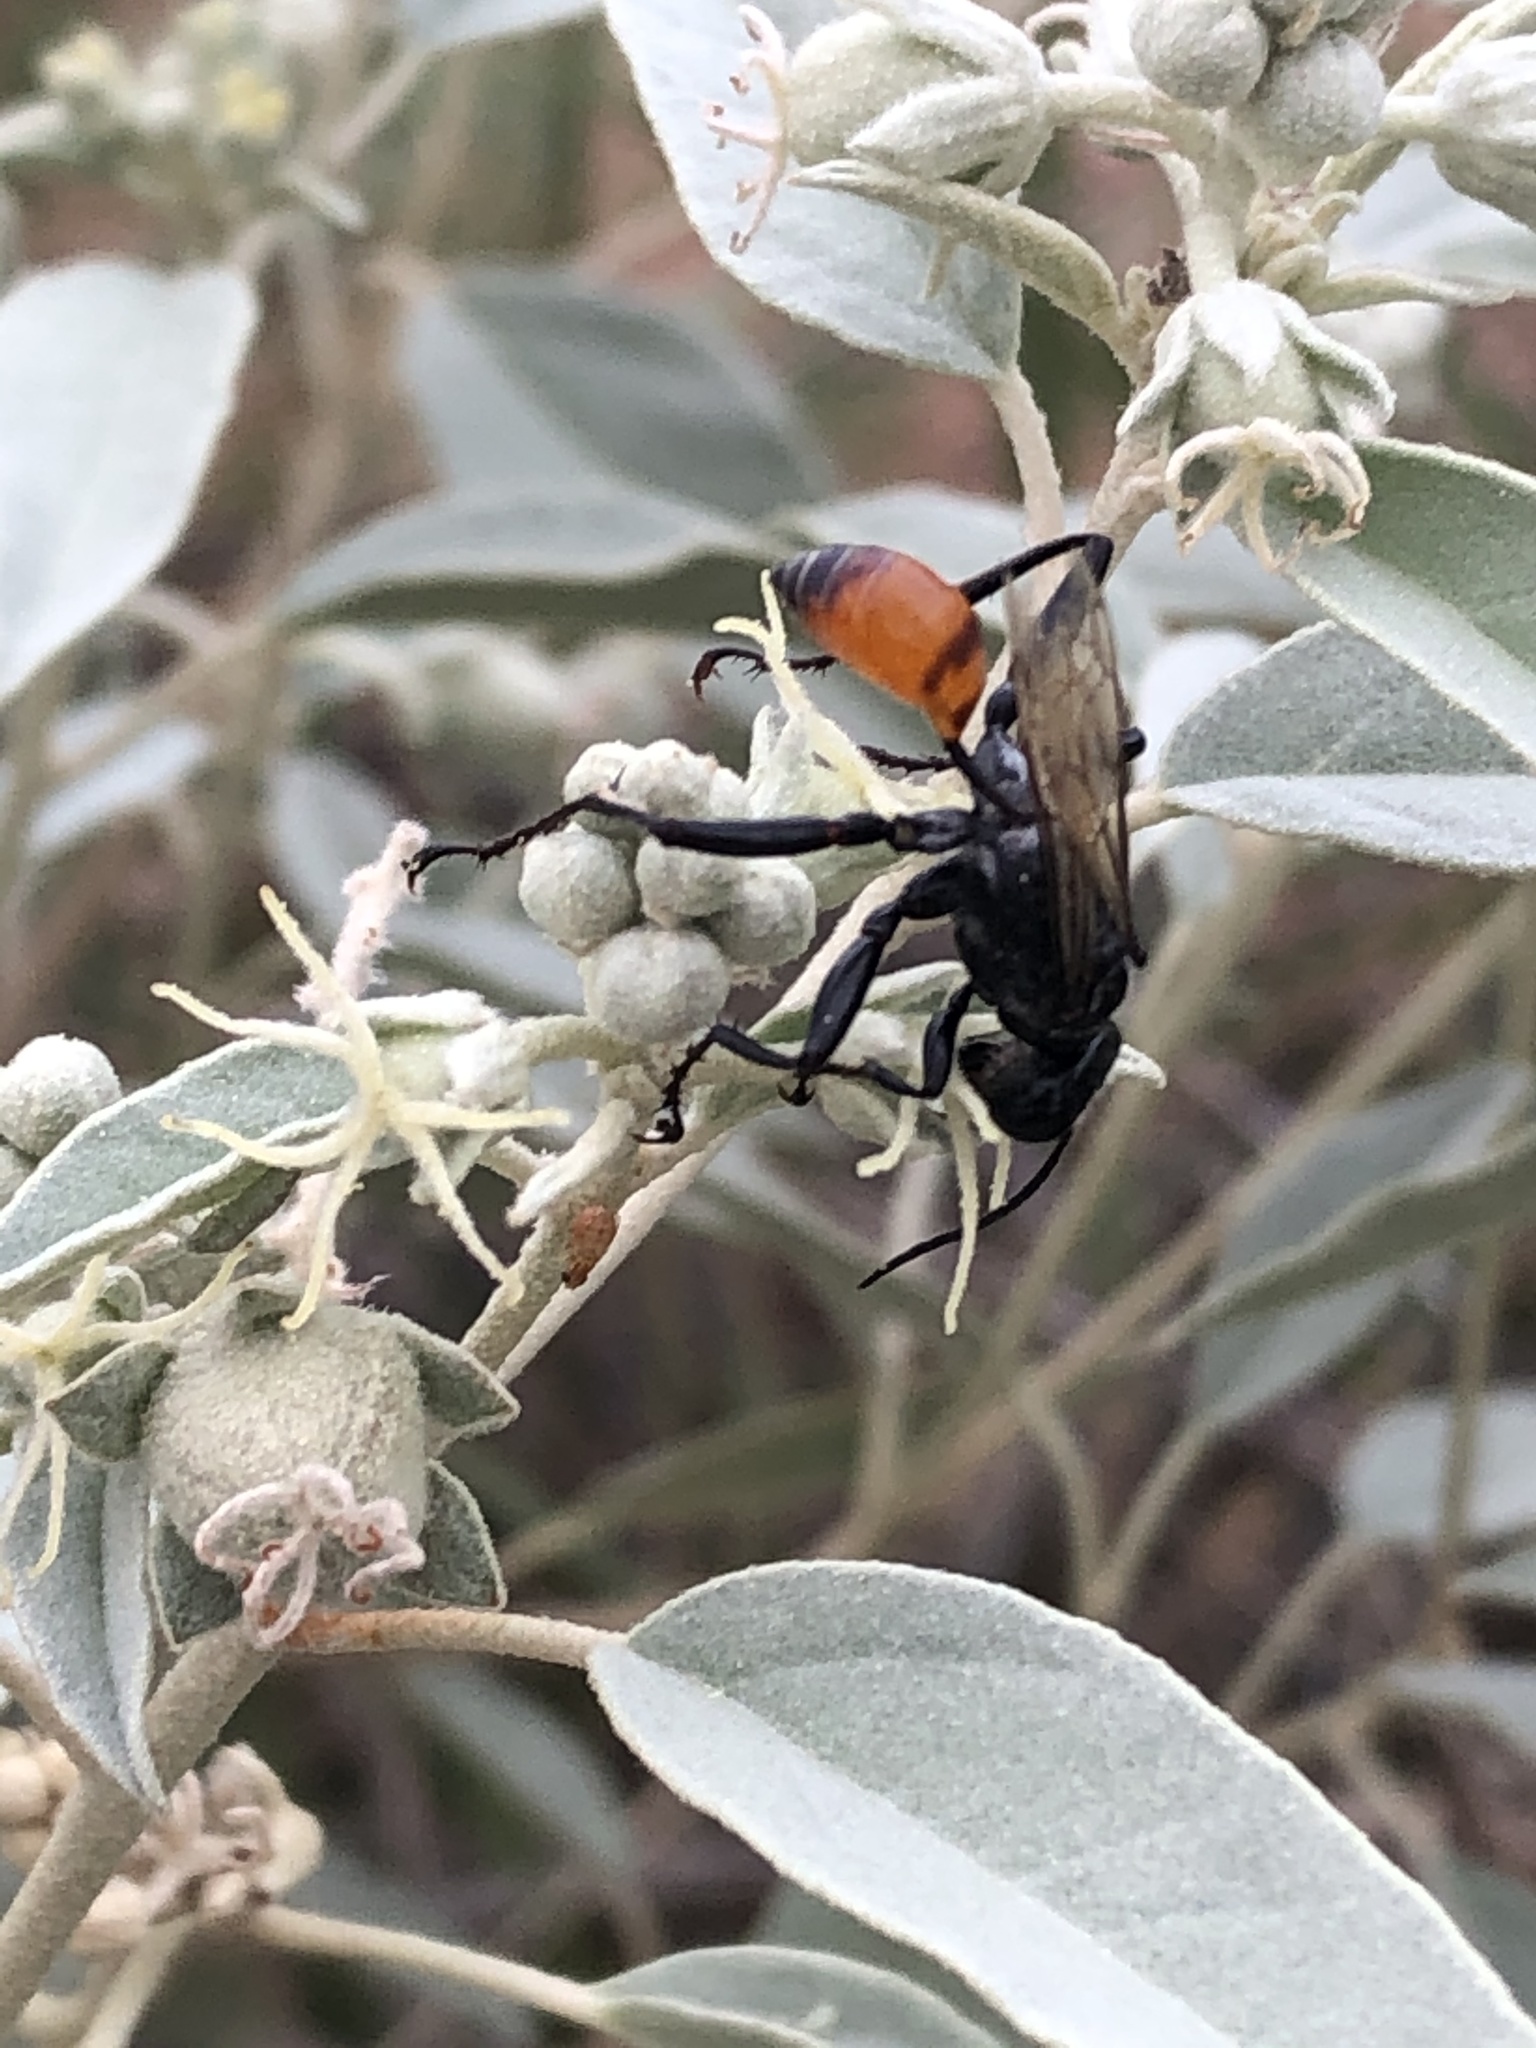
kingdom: Animalia
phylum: Arthropoda
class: Insecta
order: Hymenoptera
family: Sphecidae
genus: Prionyx
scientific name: Prionyx
